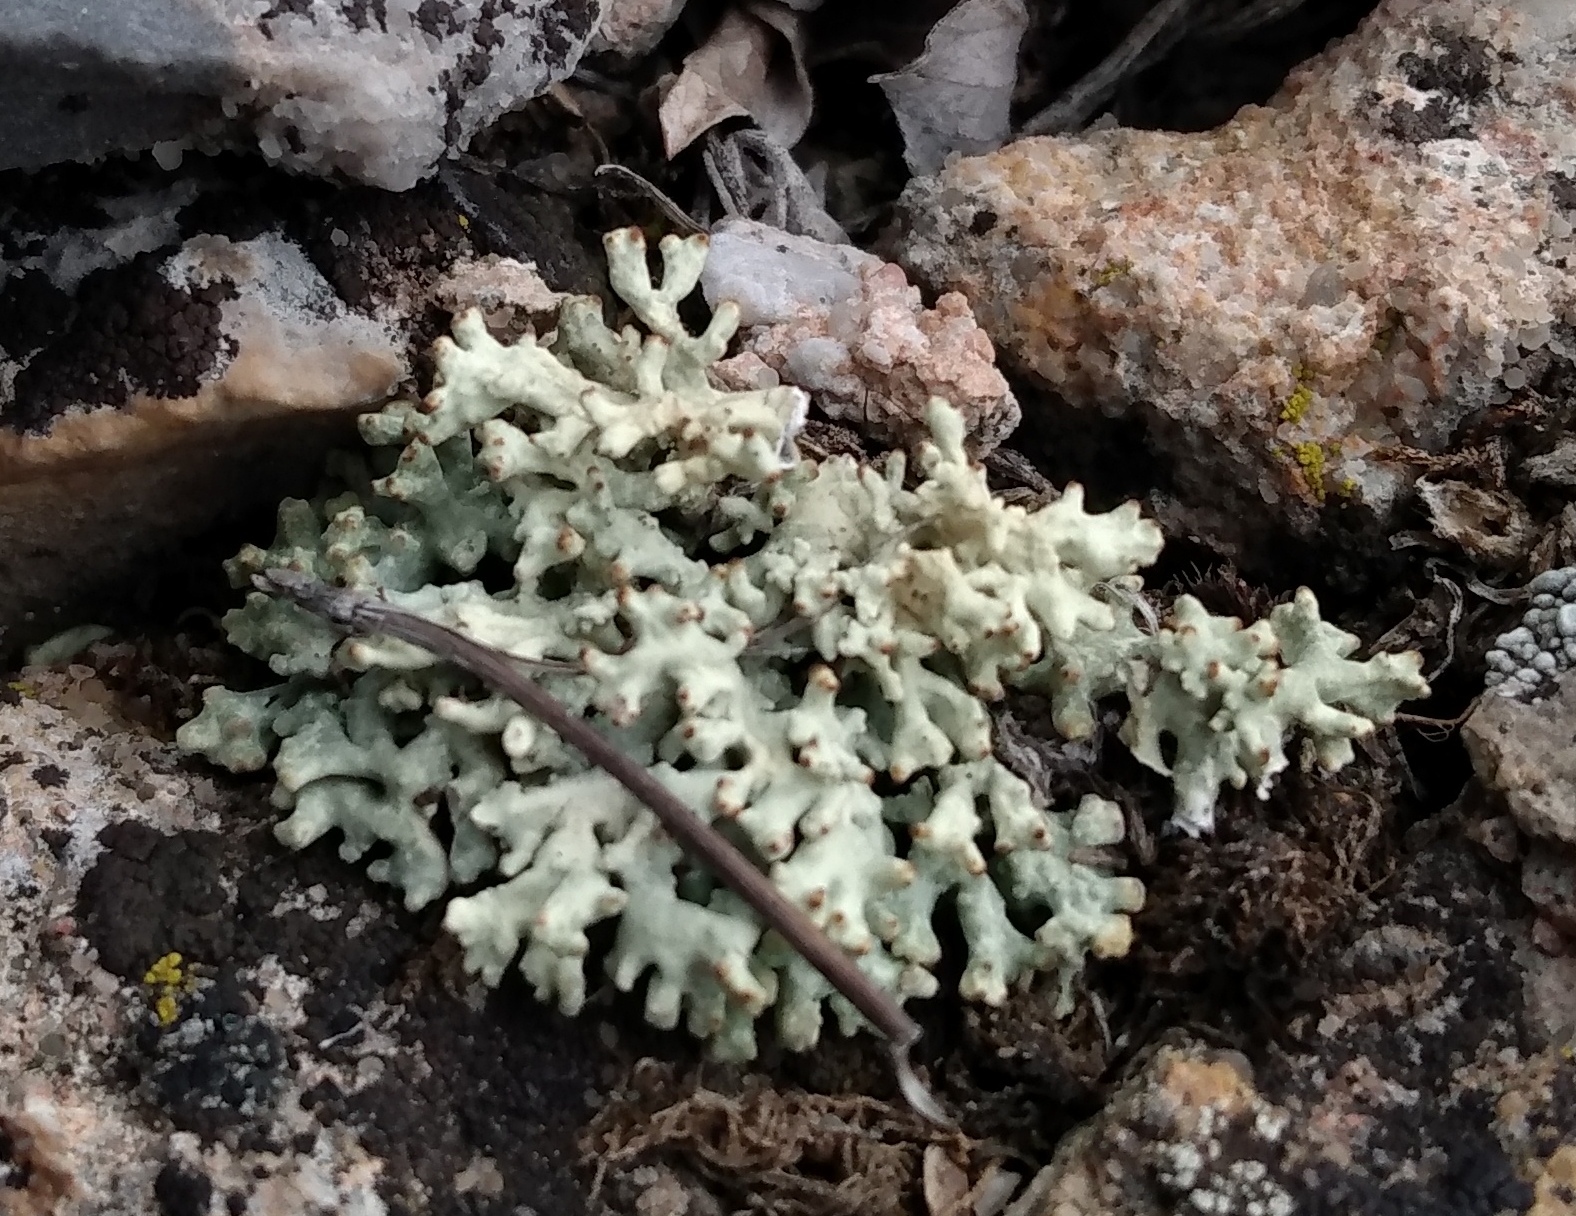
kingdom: Fungi
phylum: Ascomycota
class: Lecanoromycetes
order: Lecanorales
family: Parmeliaceae
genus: Allocetraria
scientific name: Allocetraria madreporiformis
